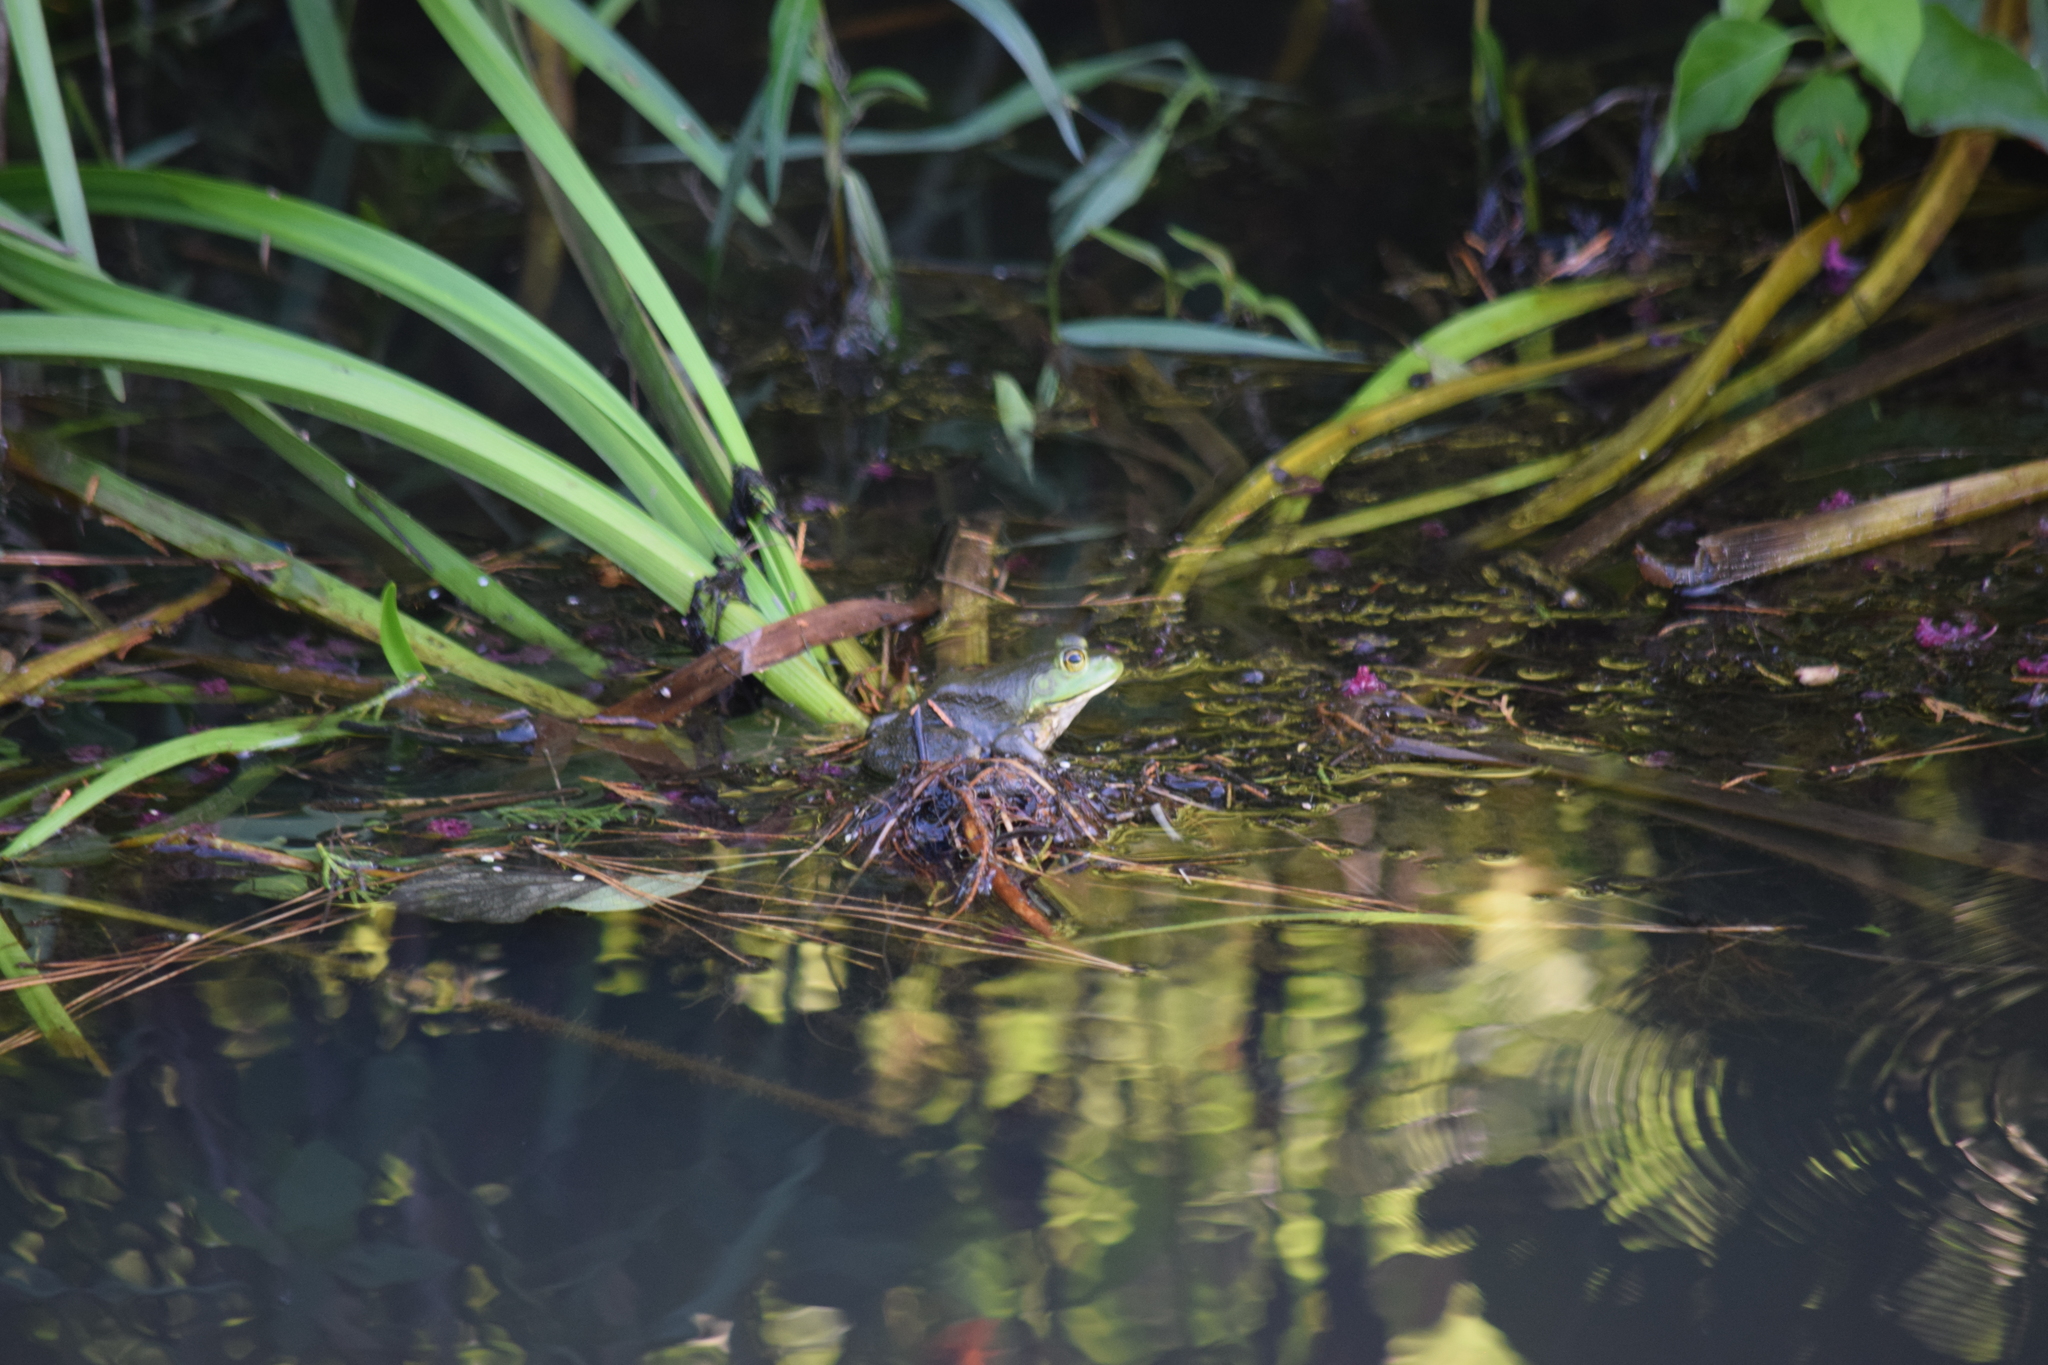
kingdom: Animalia
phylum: Chordata
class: Amphibia
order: Anura
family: Ranidae
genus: Lithobates
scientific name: Lithobates catesbeianus
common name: American bullfrog
